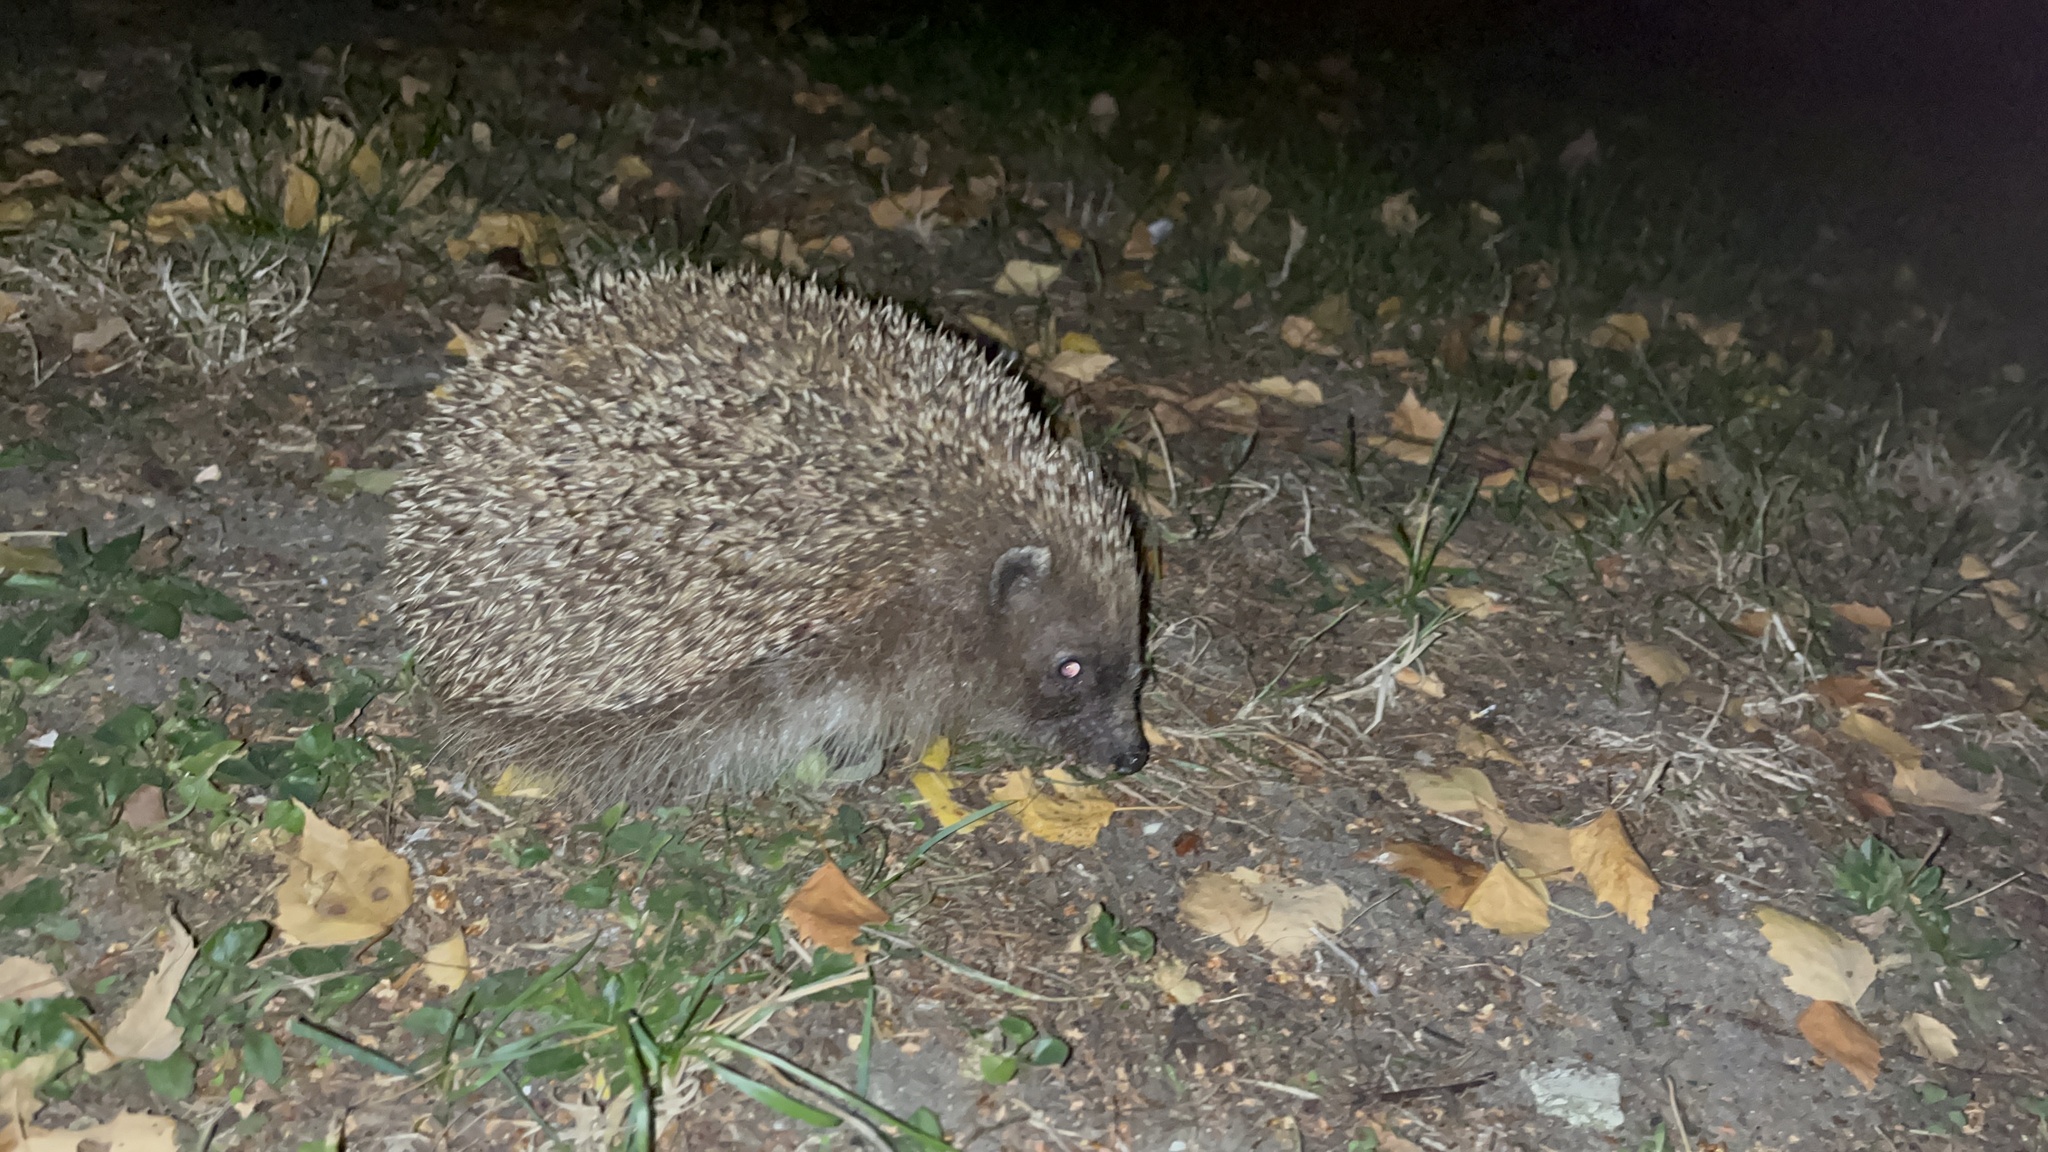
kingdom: Animalia
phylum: Chordata
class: Mammalia
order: Erinaceomorpha
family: Erinaceidae
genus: Erinaceus
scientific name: Erinaceus europaeus
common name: West european hedgehog
